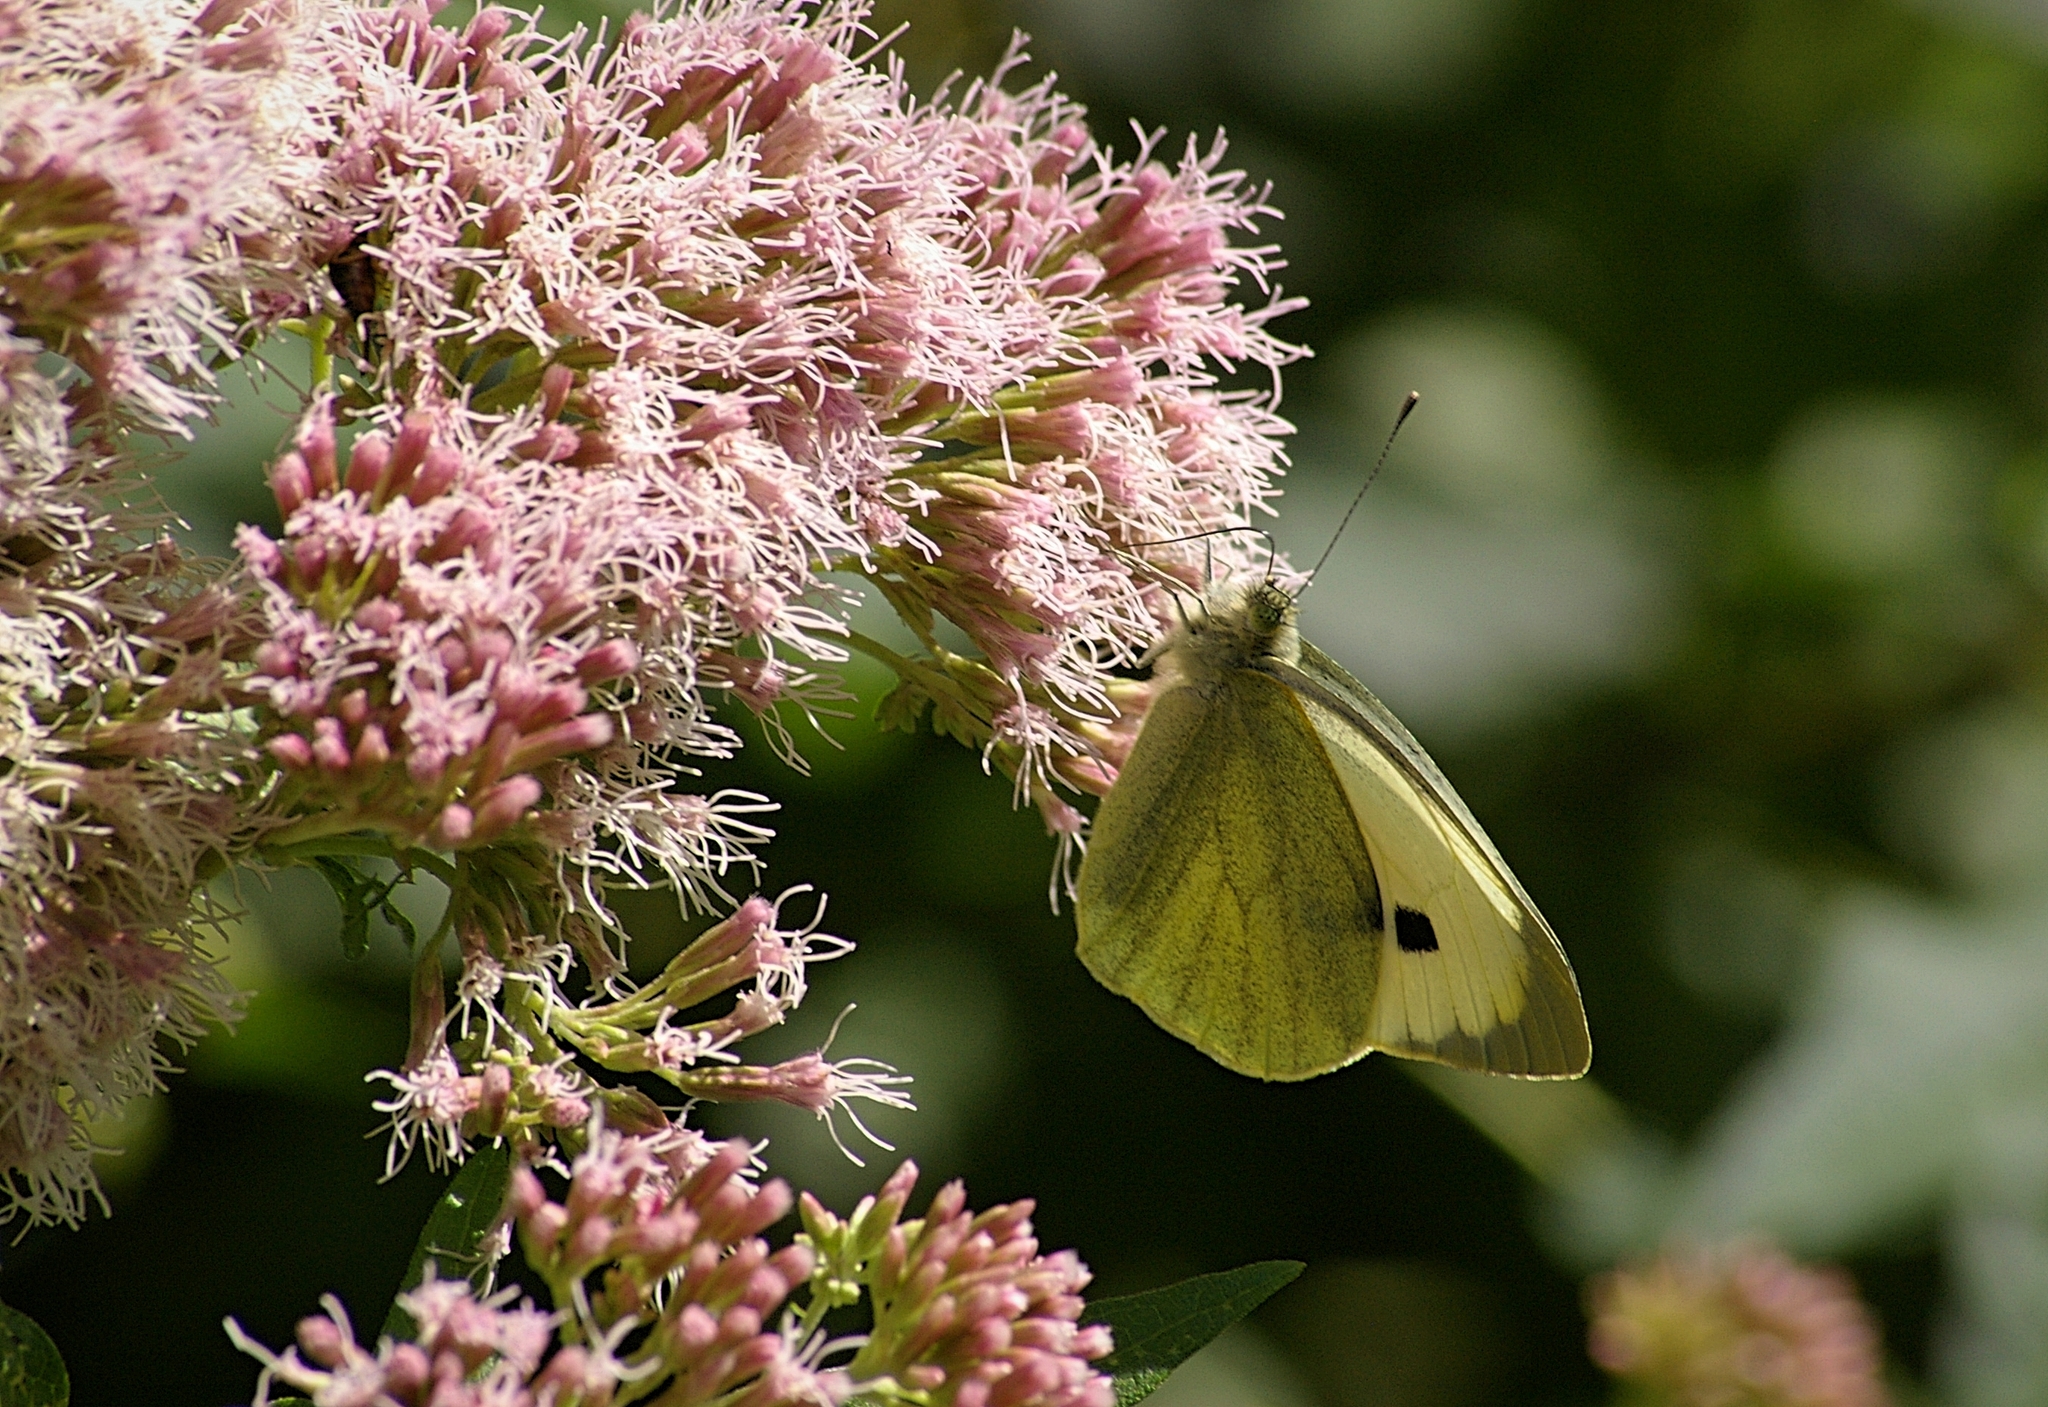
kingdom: Animalia
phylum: Arthropoda
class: Insecta
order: Lepidoptera
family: Pieridae
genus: Pieris
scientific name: Pieris brassicae
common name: Large white
